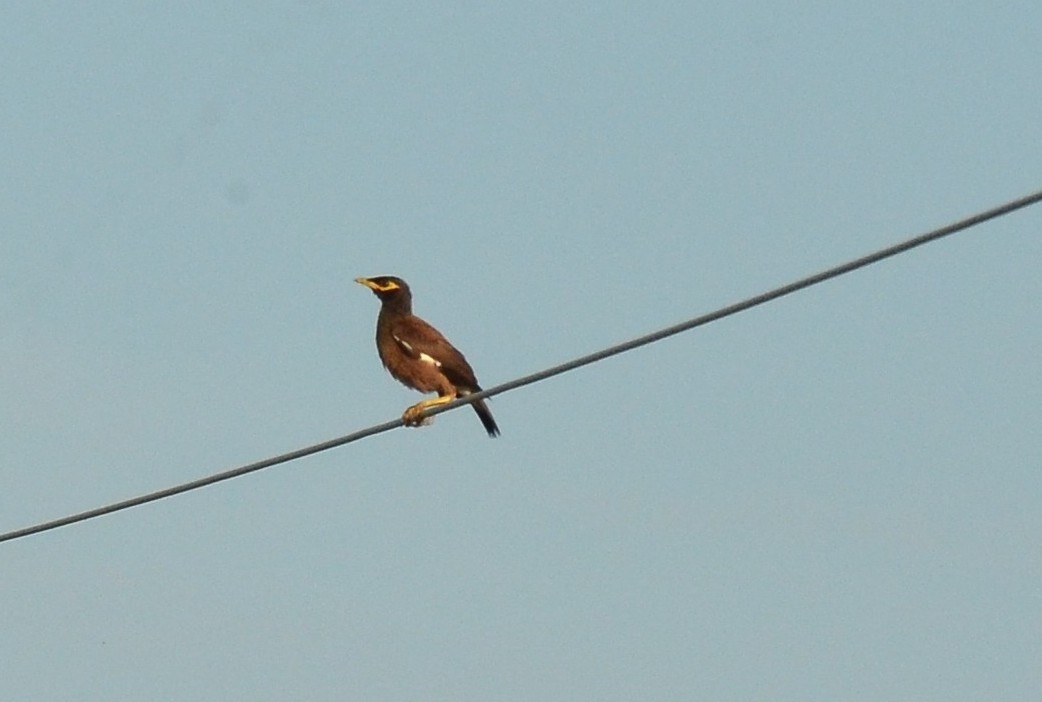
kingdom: Animalia
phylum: Chordata
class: Aves
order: Passeriformes
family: Sturnidae
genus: Acridotheres
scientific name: Acridotheres tristis
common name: Common myna
